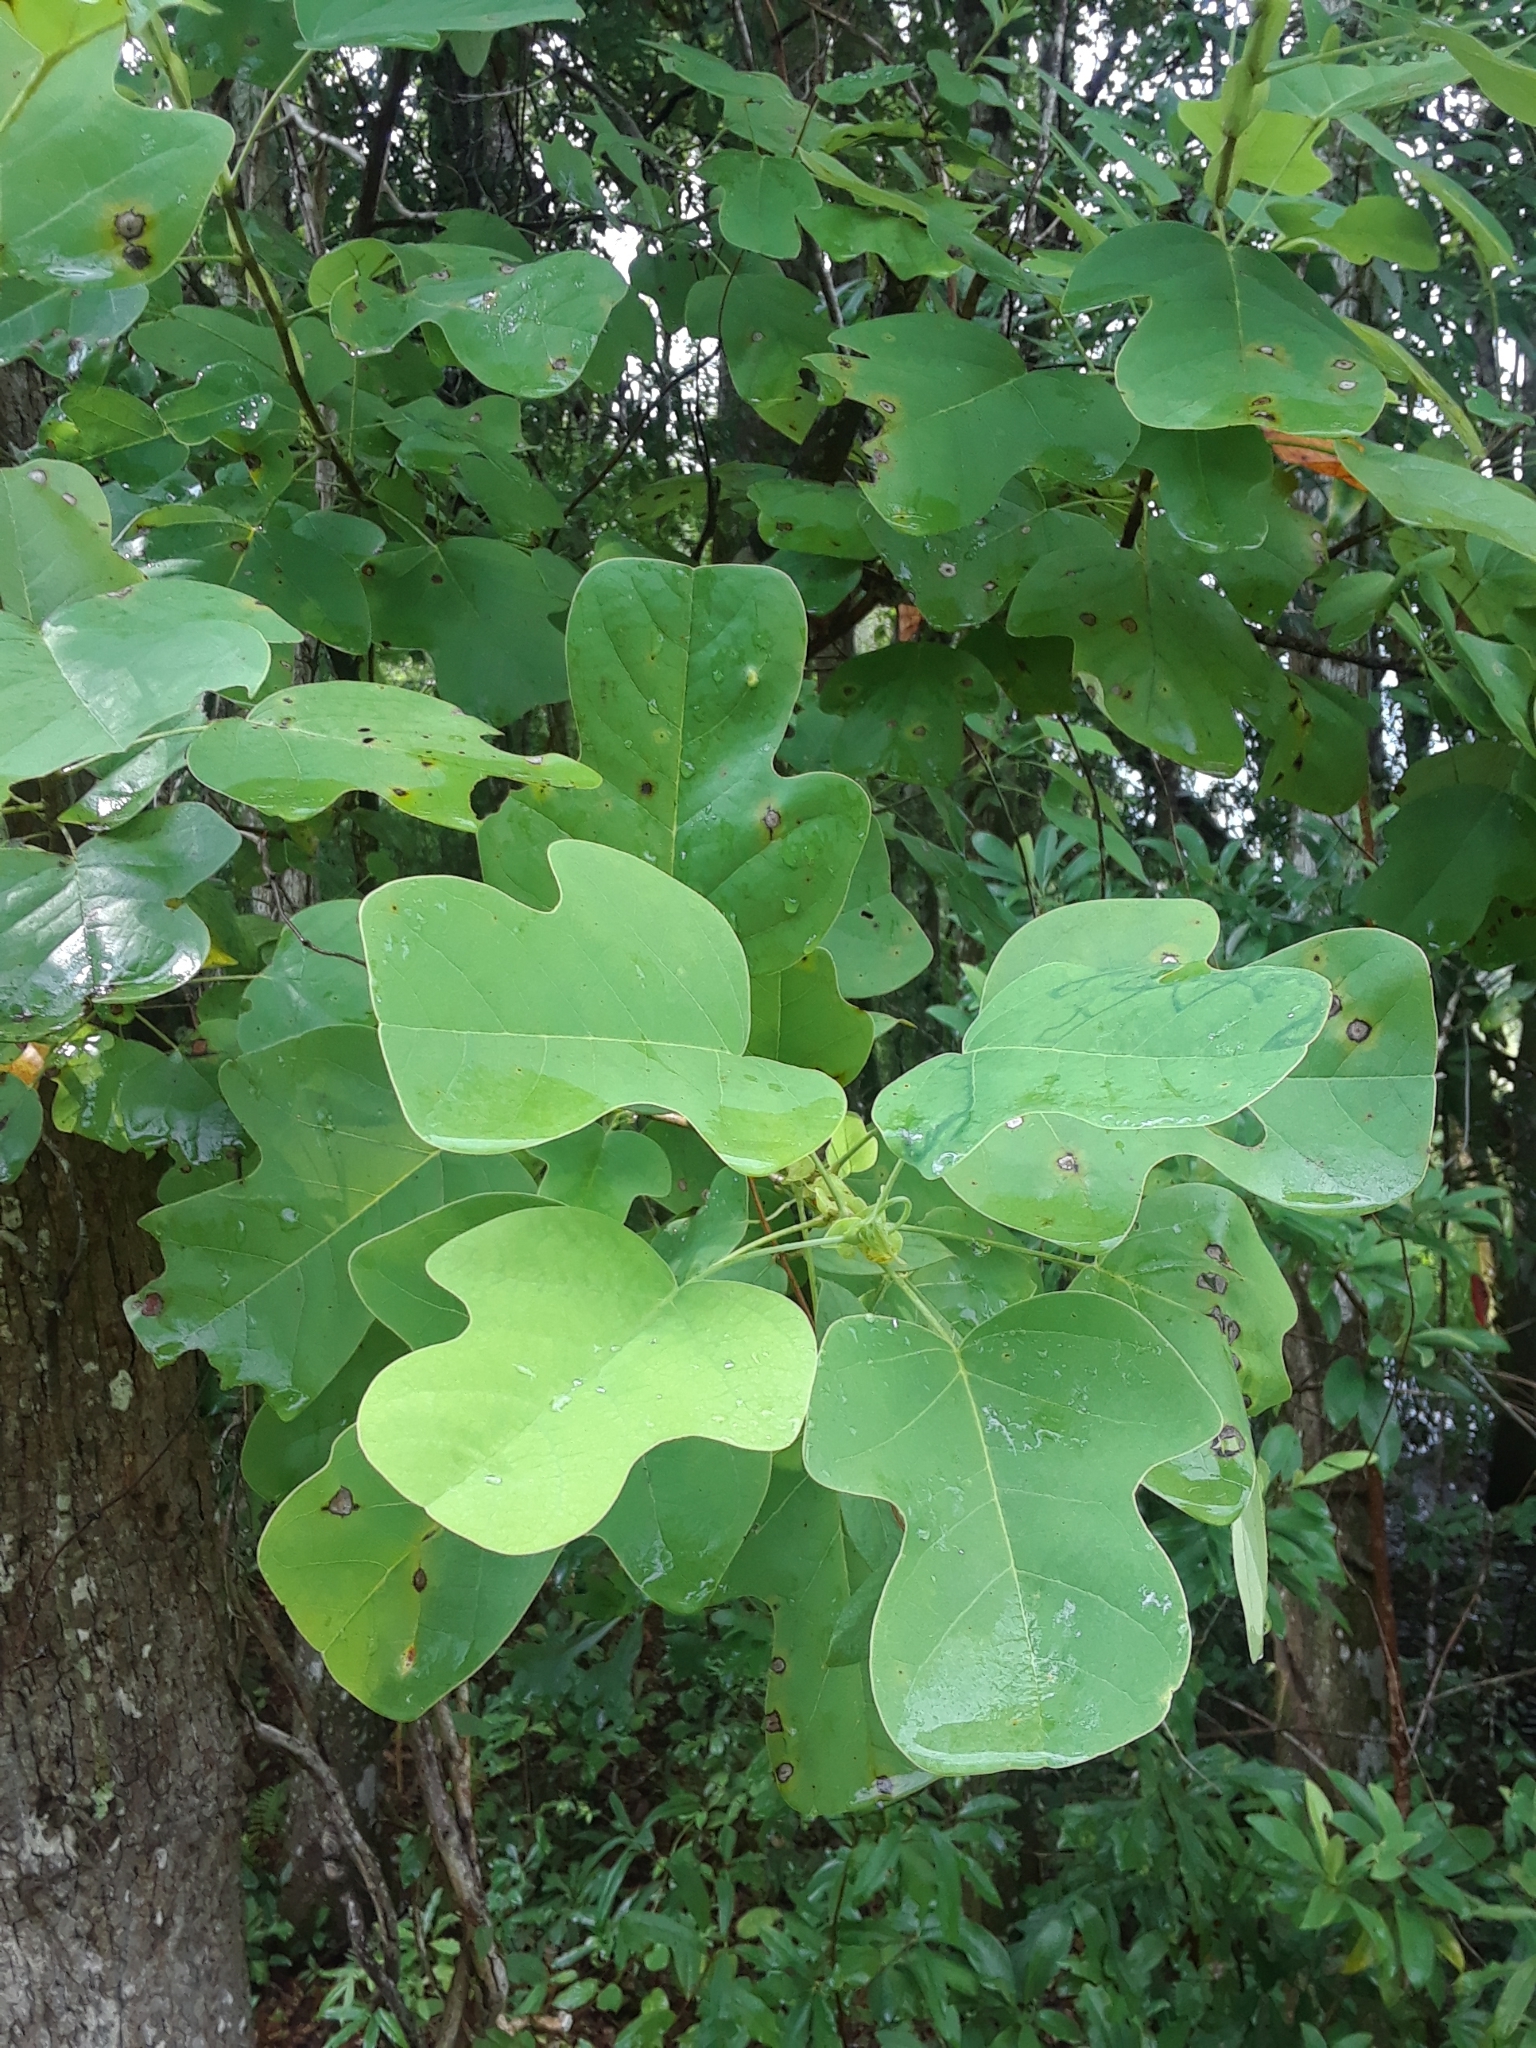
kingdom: Plantae
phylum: Tracheophyta
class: Magnoliopsida
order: Magnoliales
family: Magnoliaceae
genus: Liriodendron
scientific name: Liriodendron tulipifera
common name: Tulip tree
